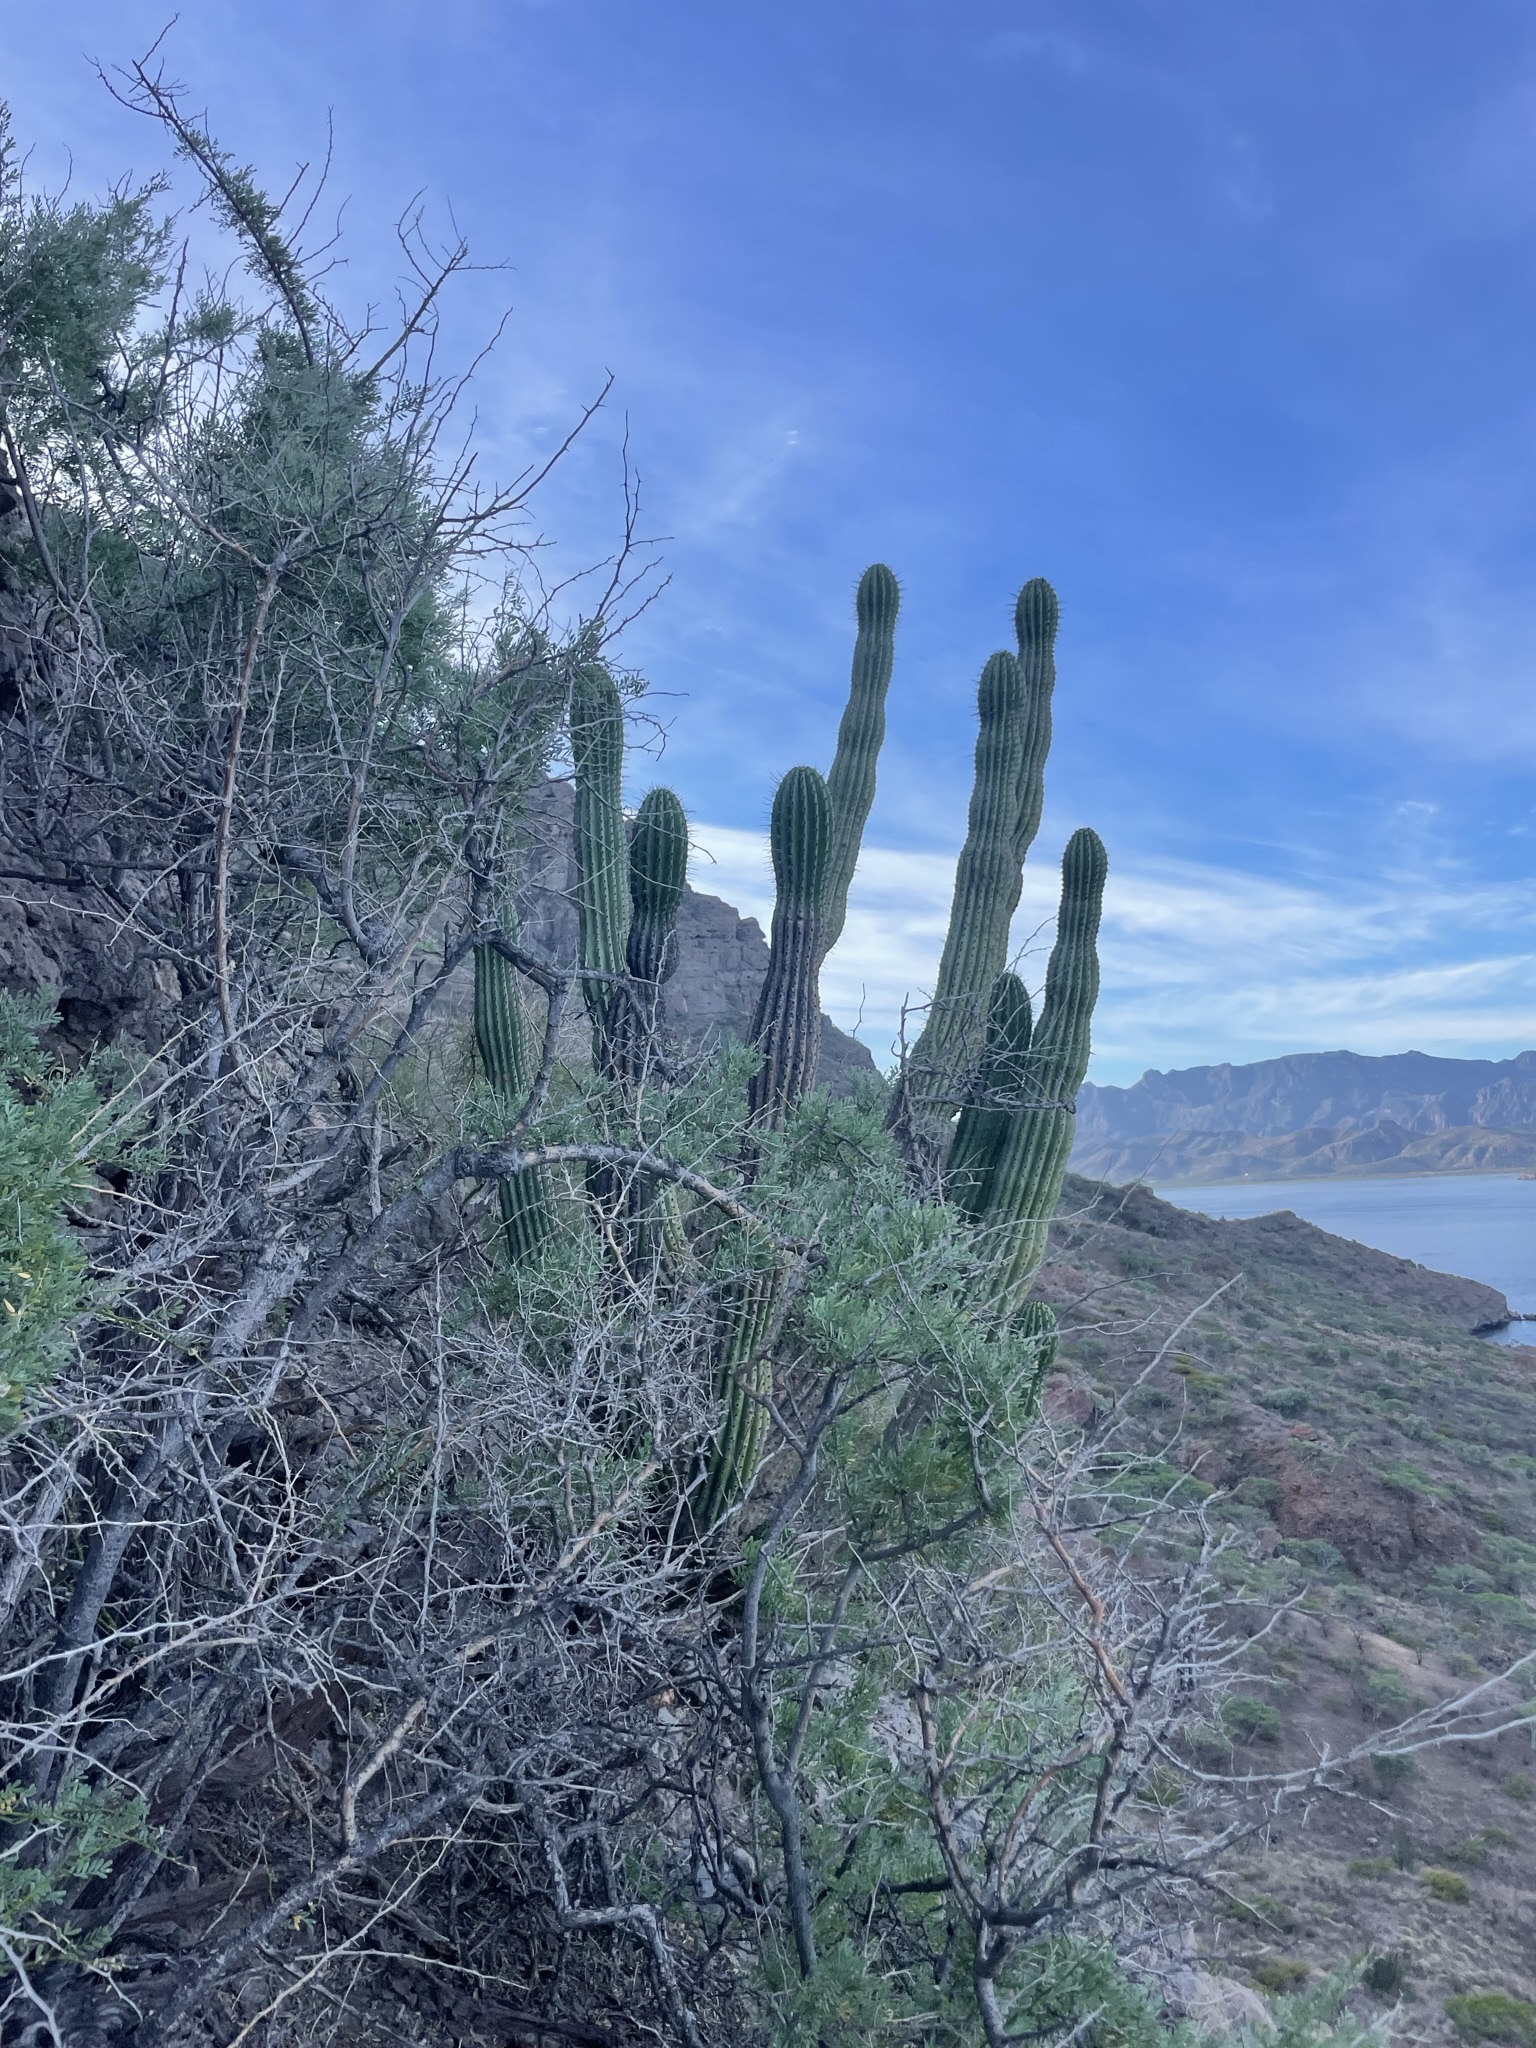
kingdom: Plantae
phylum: Tracheophyta
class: Magnoliopsida
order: Caryophyllales
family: Cactaceae
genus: Stenocereus
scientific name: Stenocereus thurberi
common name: Organ pipe cactus
